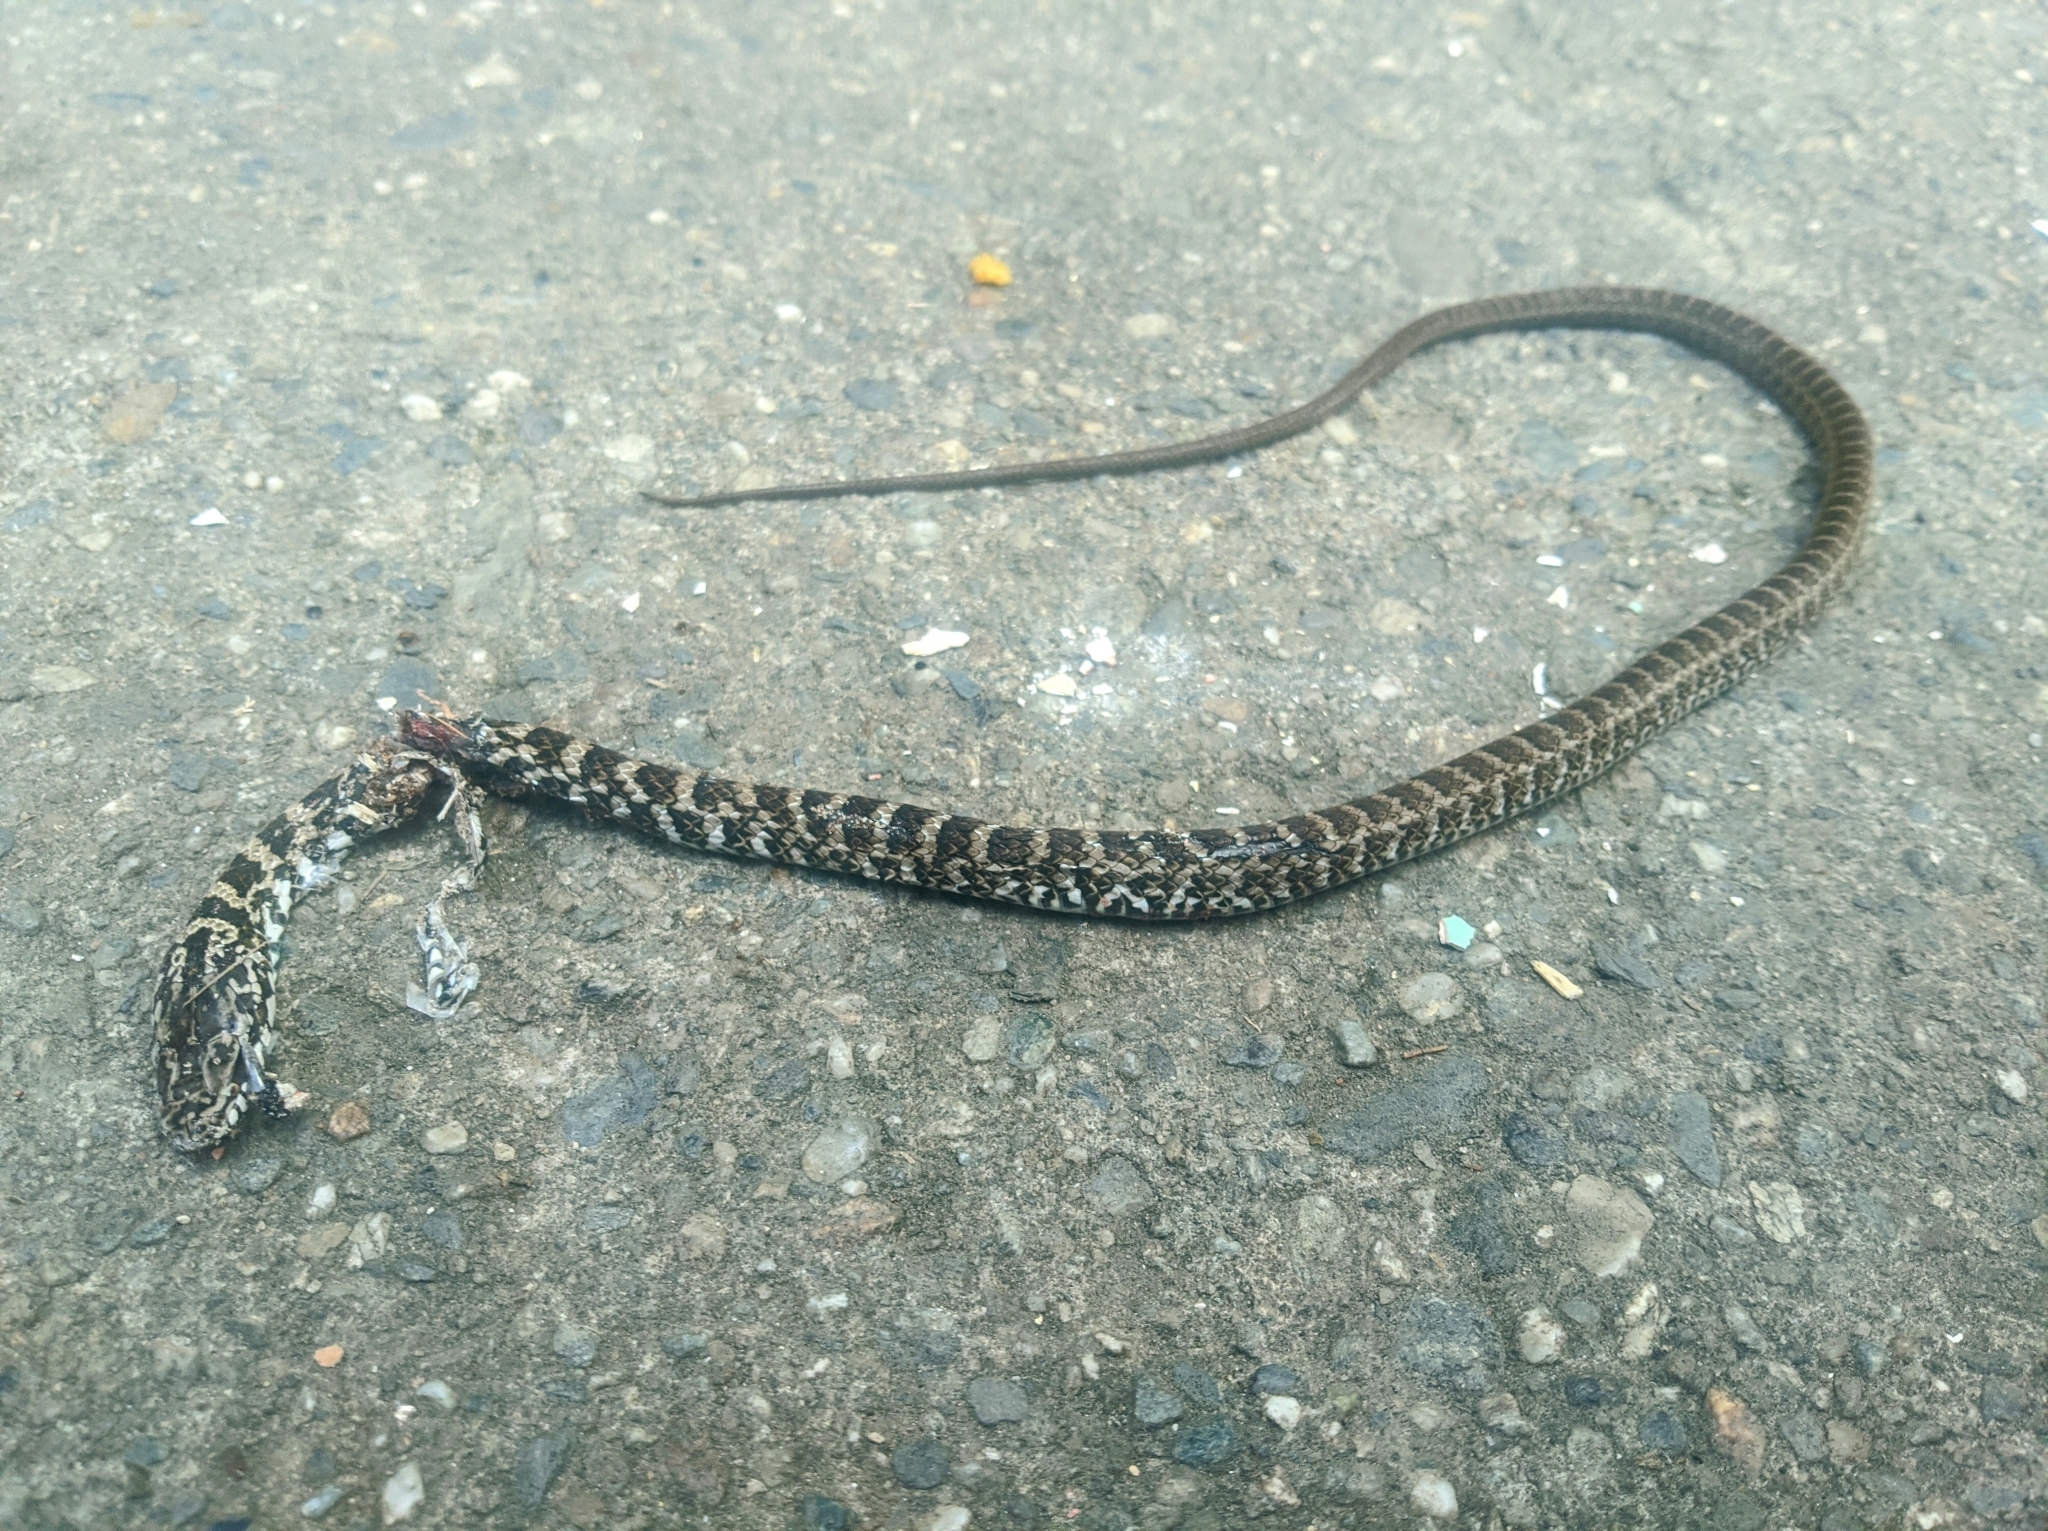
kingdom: Animalia
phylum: Chordata
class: Squamata
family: Colubridae
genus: Mastigodryas
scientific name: Mastigodryas boddaerti
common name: Boddaert's tropical racer
